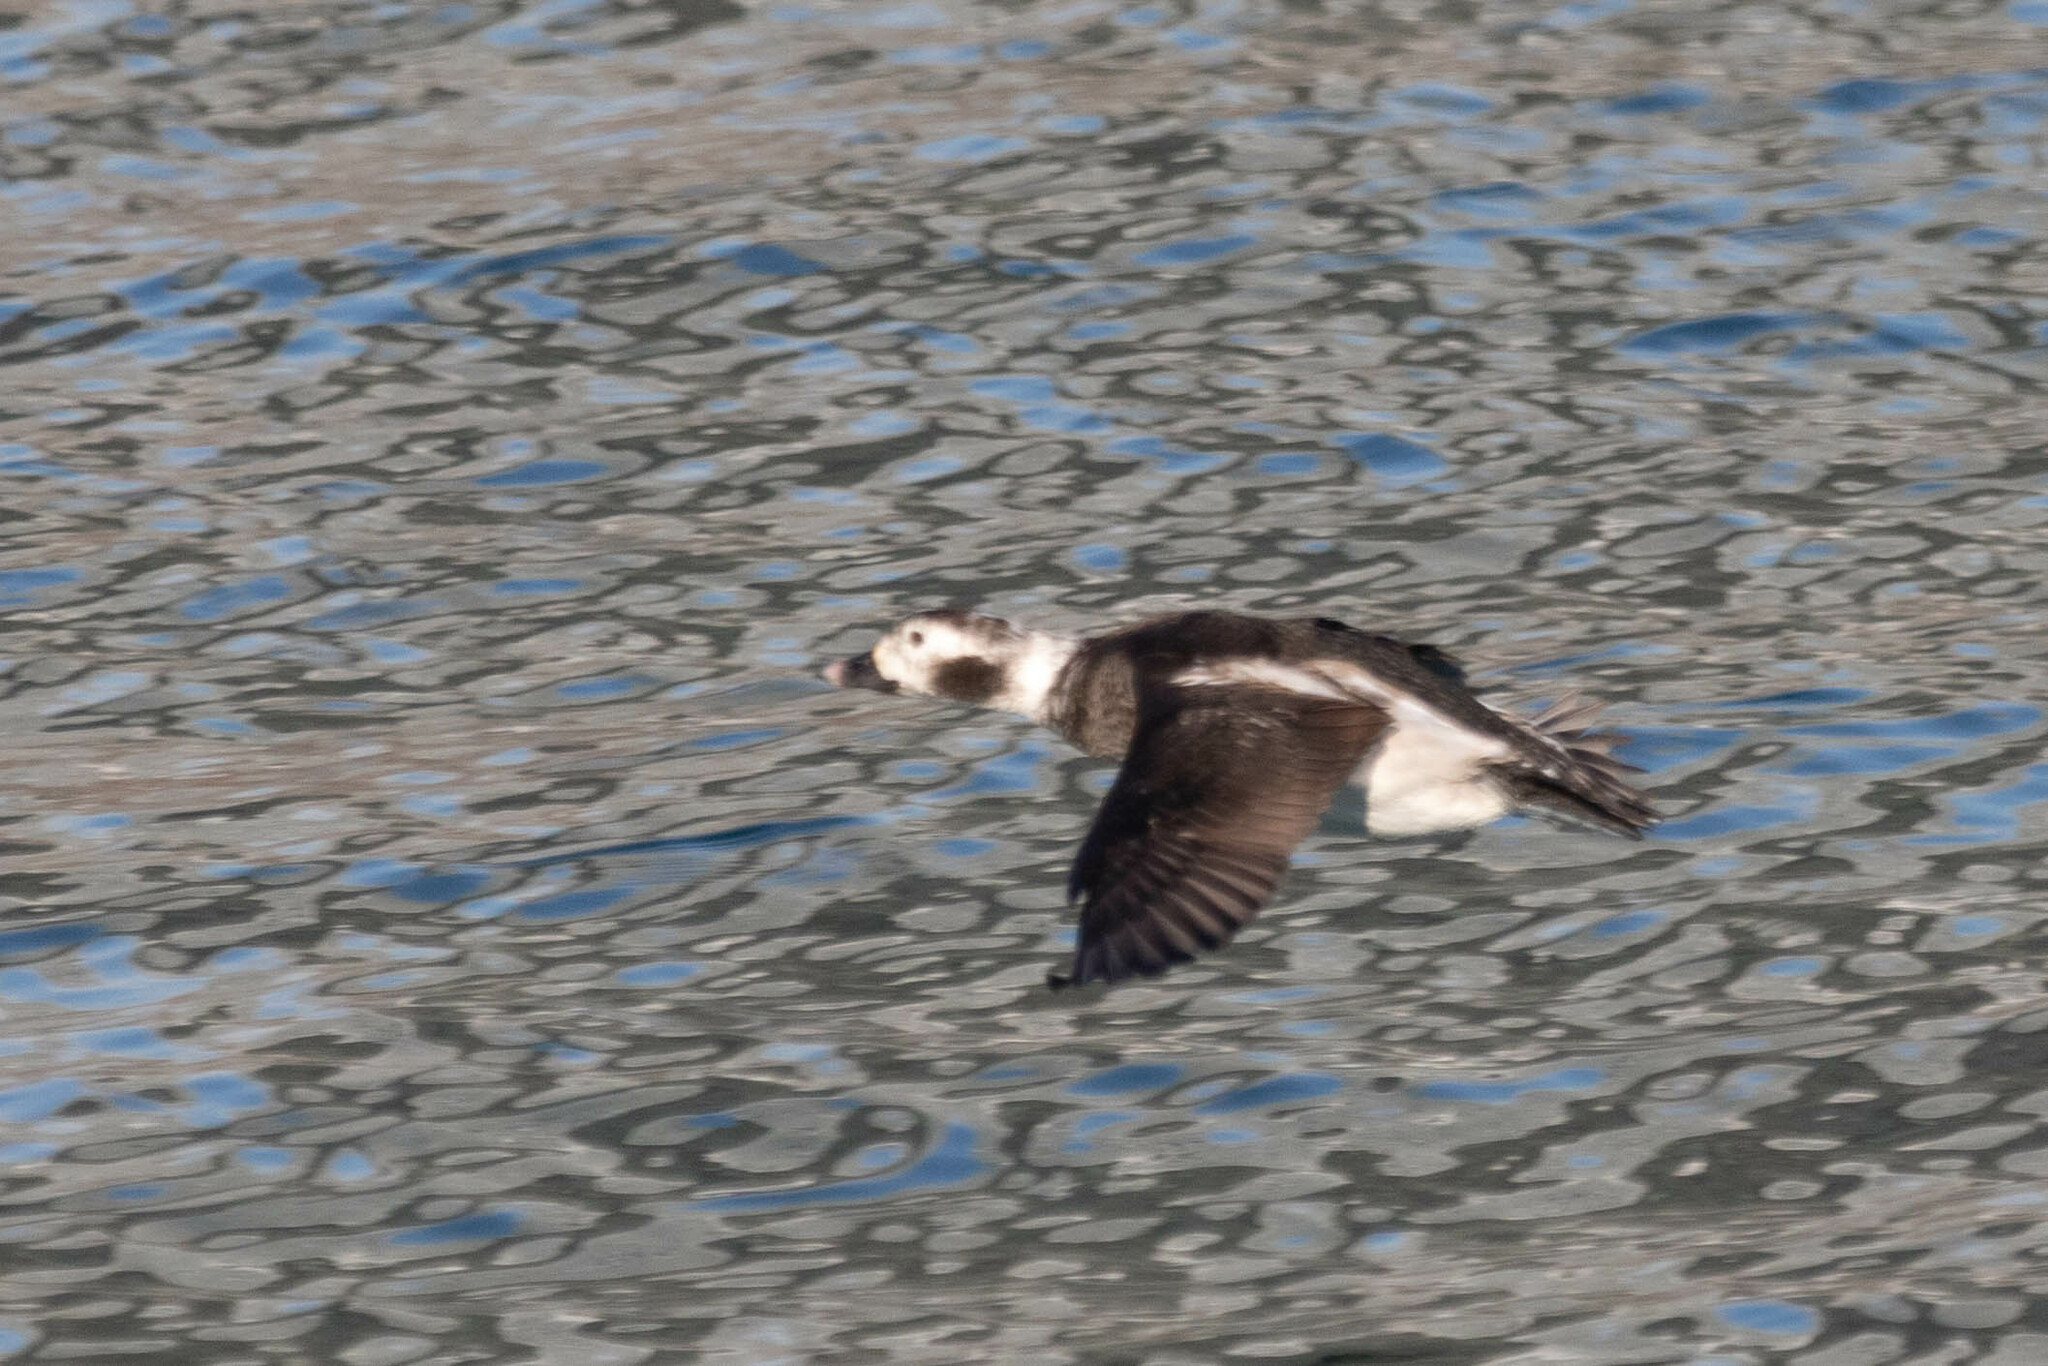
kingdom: Animalia
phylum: Chordata
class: Aves
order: Anseriformes
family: Anatidae
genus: Clangula
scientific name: Clangula hyemalis
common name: Long-tailed duck
